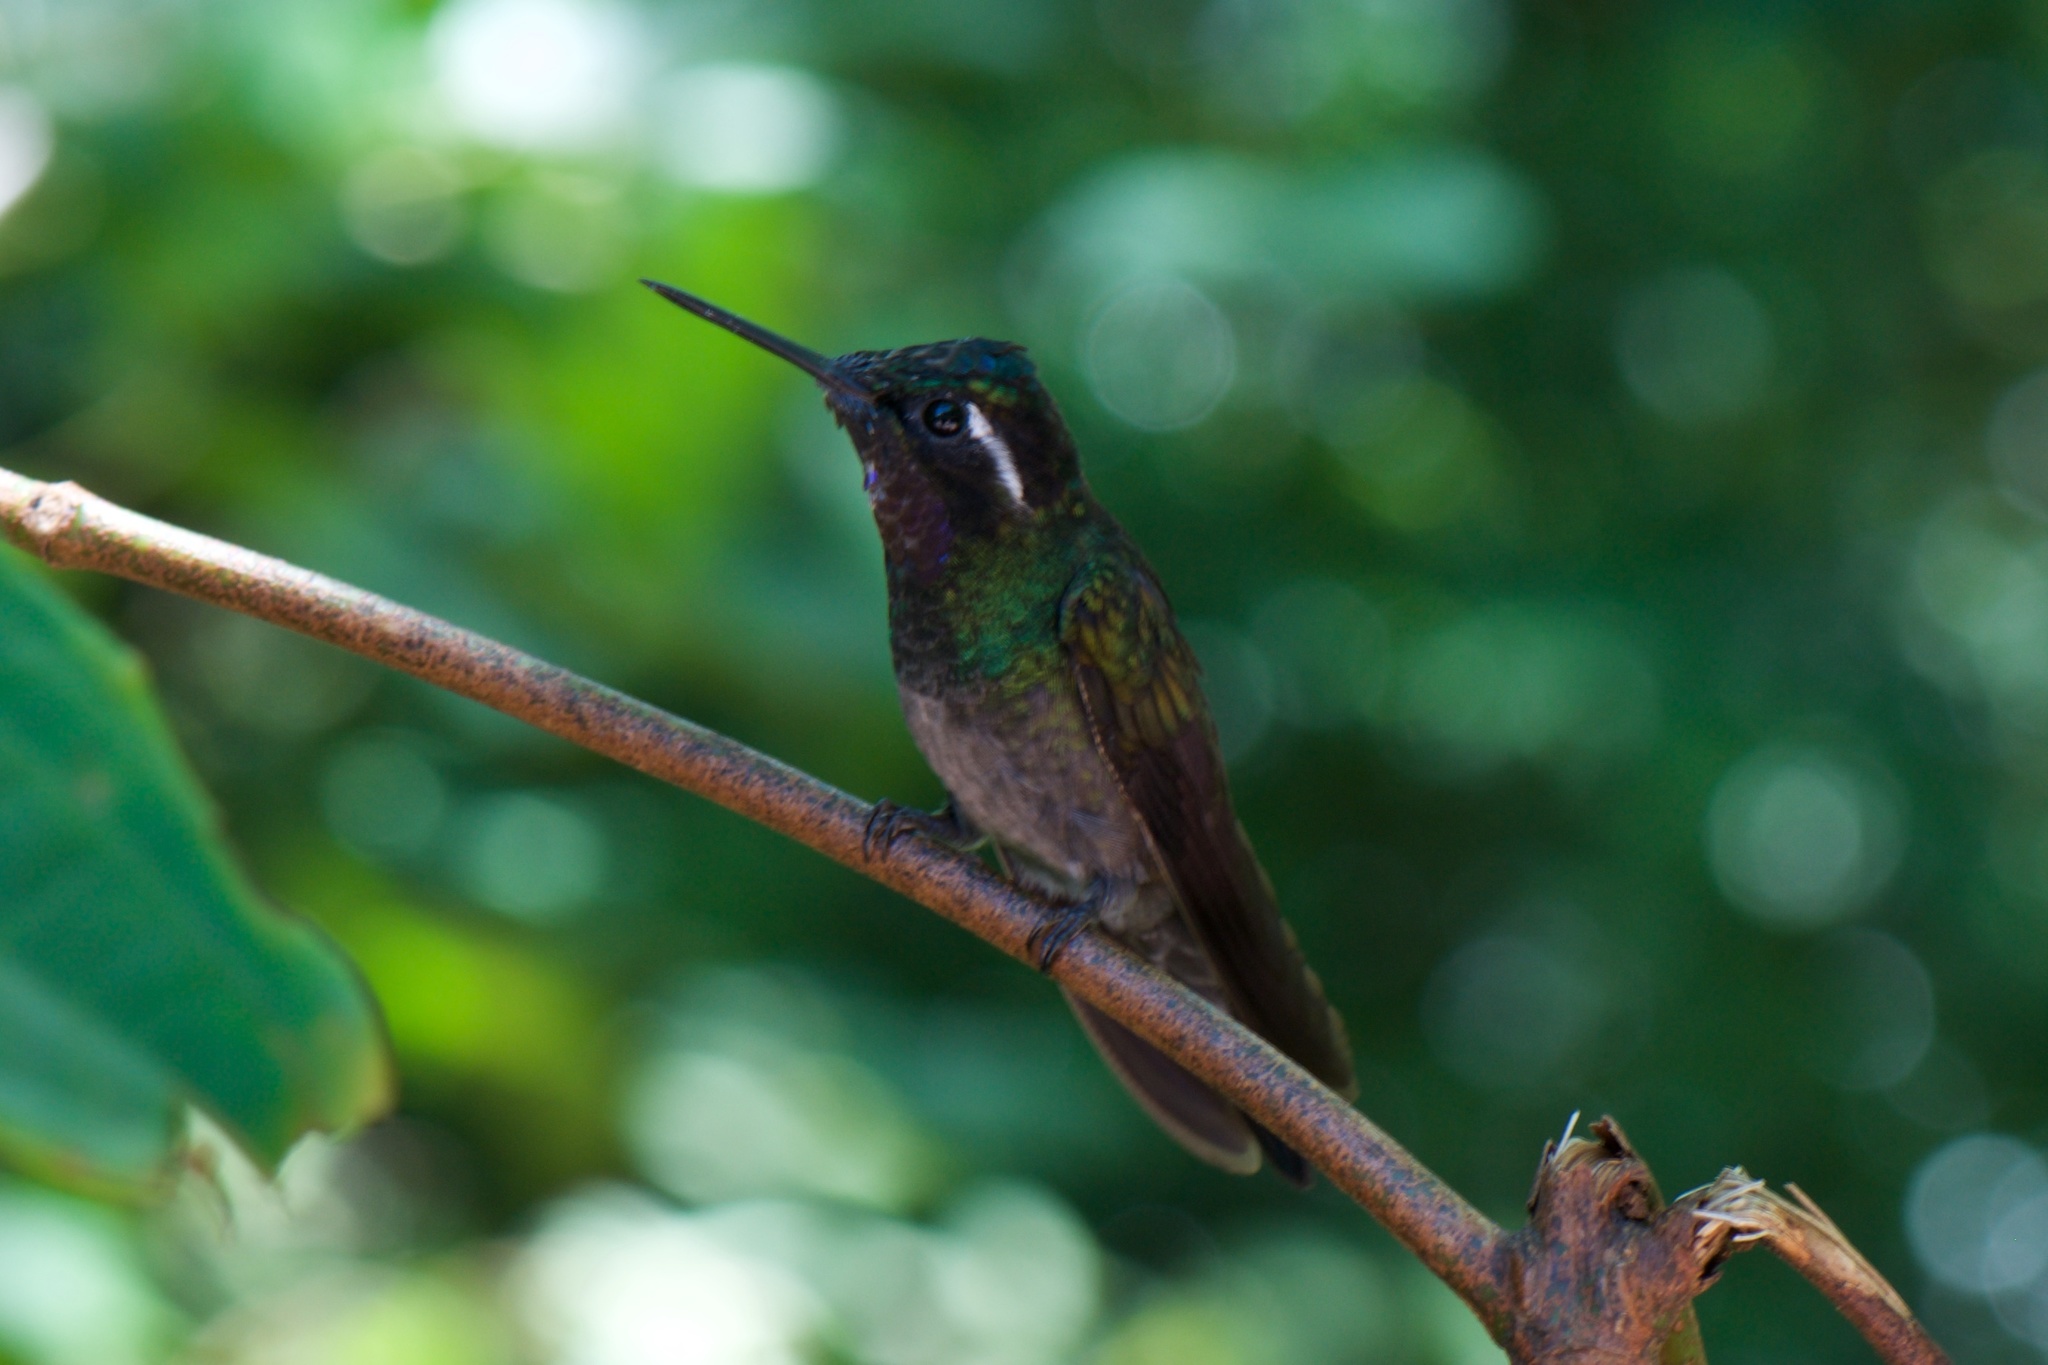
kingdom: Animalia
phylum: Chordata
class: Aves
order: Apodiformes
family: Trochilidae
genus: Lampornis
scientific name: Lampornis calolaemus
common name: Purple-throated mountain-gem
